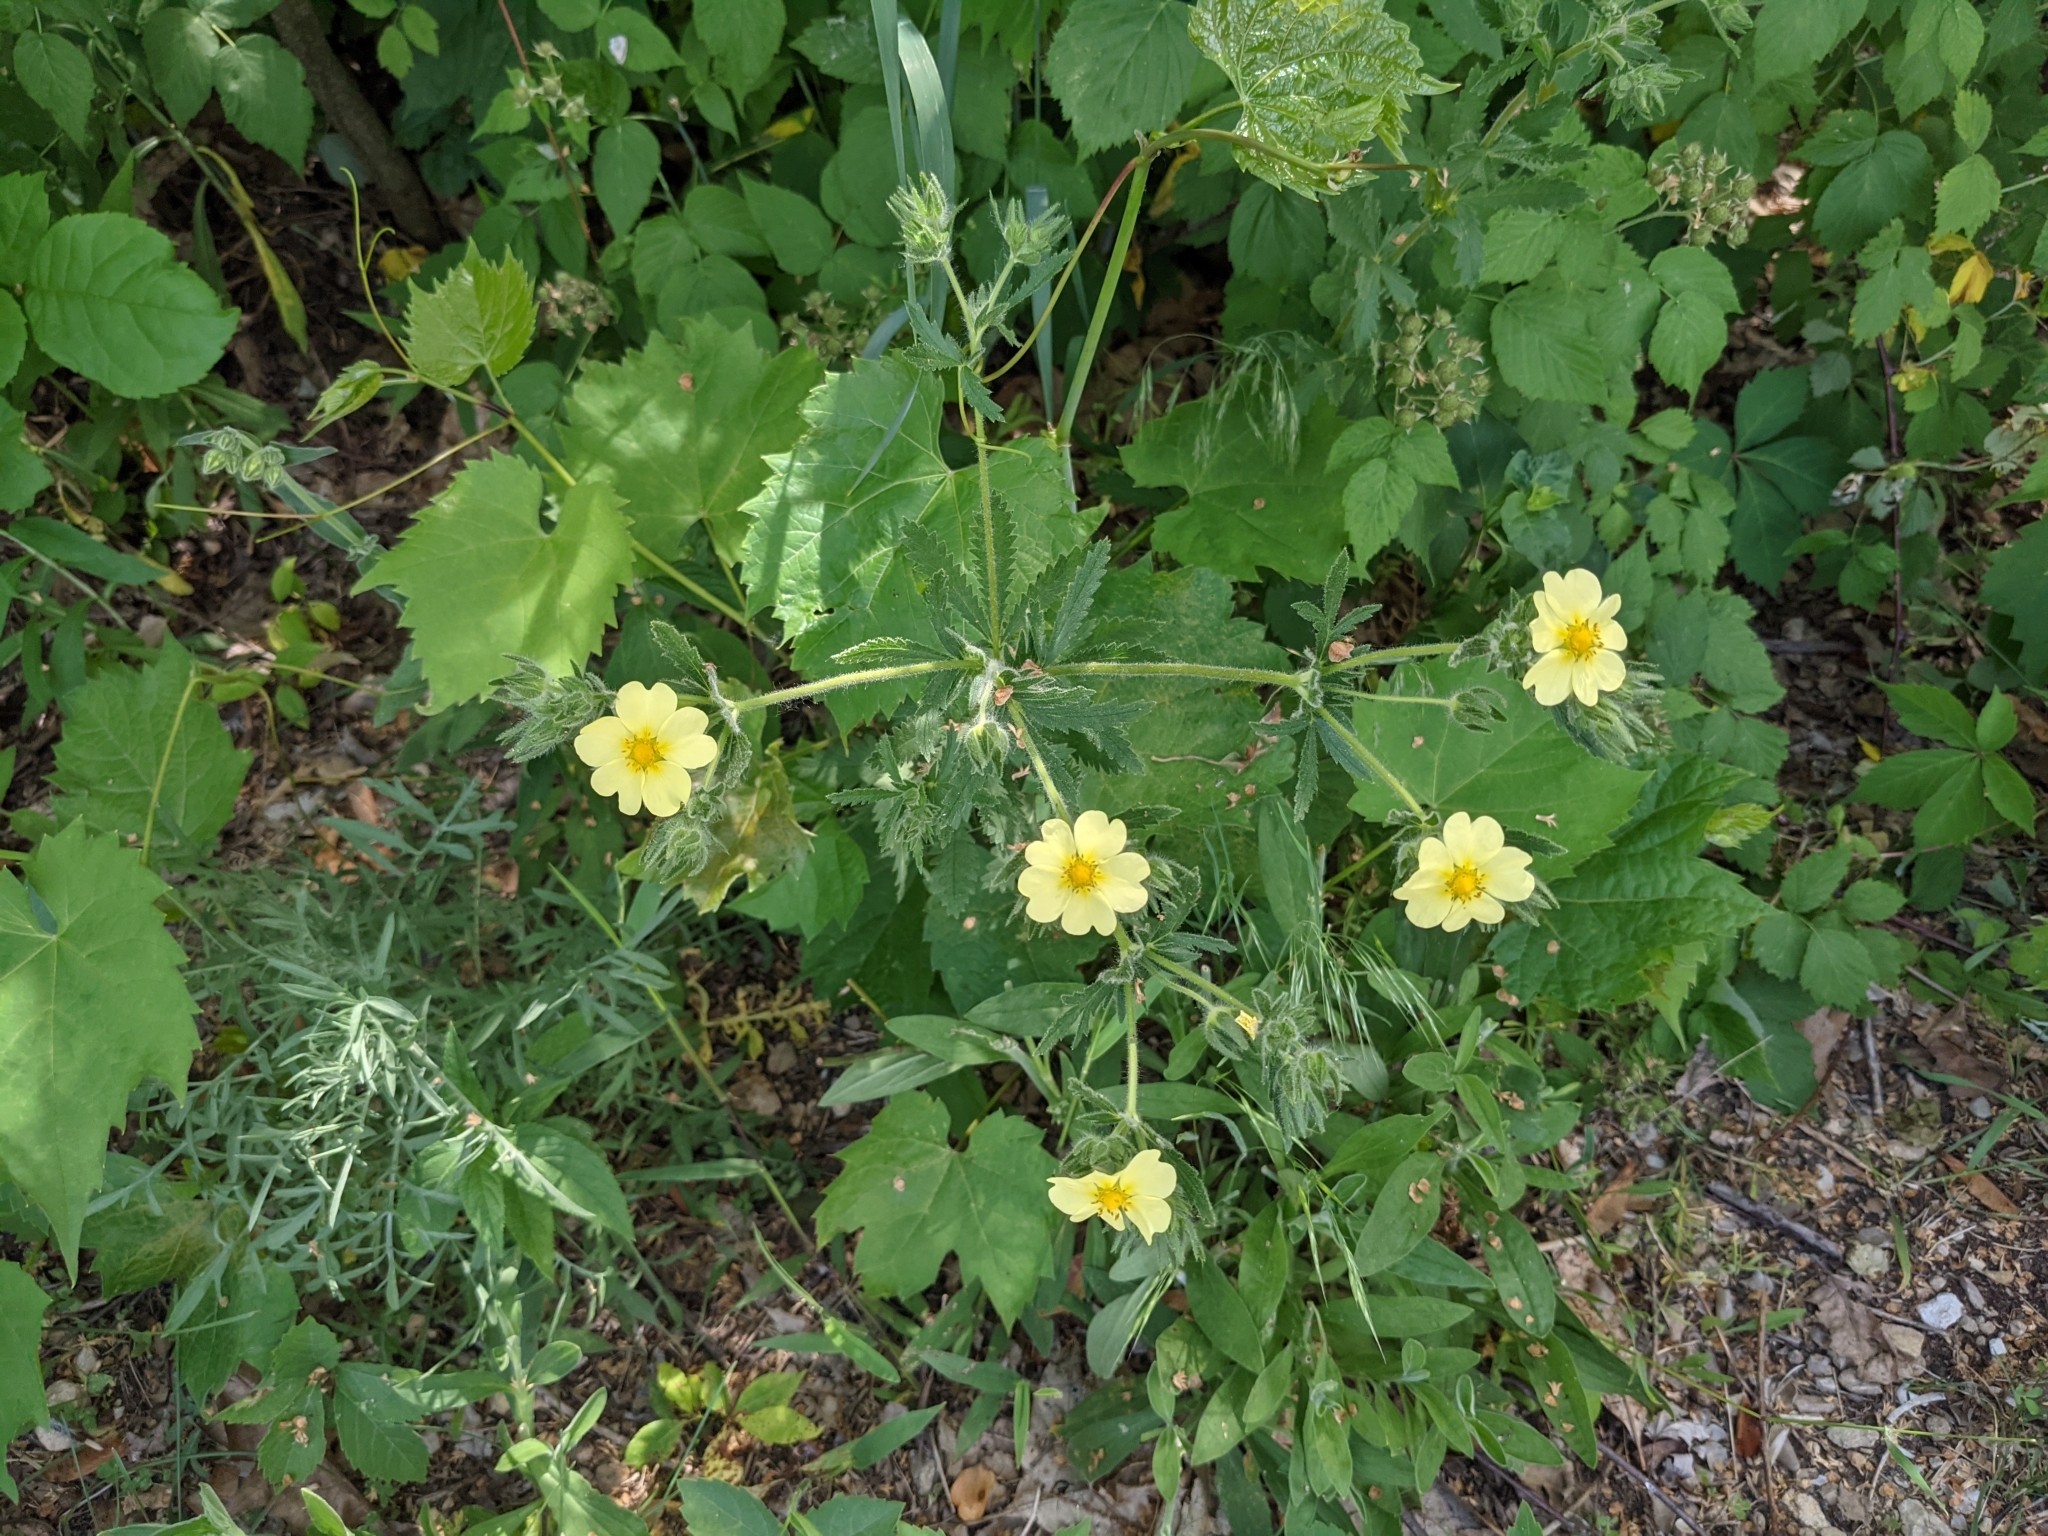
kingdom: Plantae
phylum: Tracheophyta
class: Magnoliopsida
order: Rosales
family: Rosaceae
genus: Potentilla
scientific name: Potentilla recta
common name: Sulphur cinquefoil
